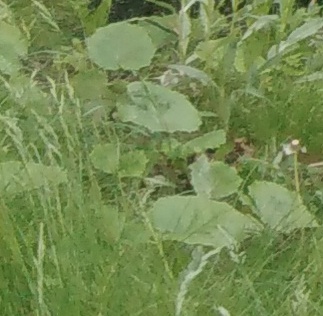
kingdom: Plantae
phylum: Tracheophyta
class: Magnoliopsida
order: Asterales
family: Asteraceae
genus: Tussilago
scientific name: Tussilago farfara
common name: Coltsfoot
